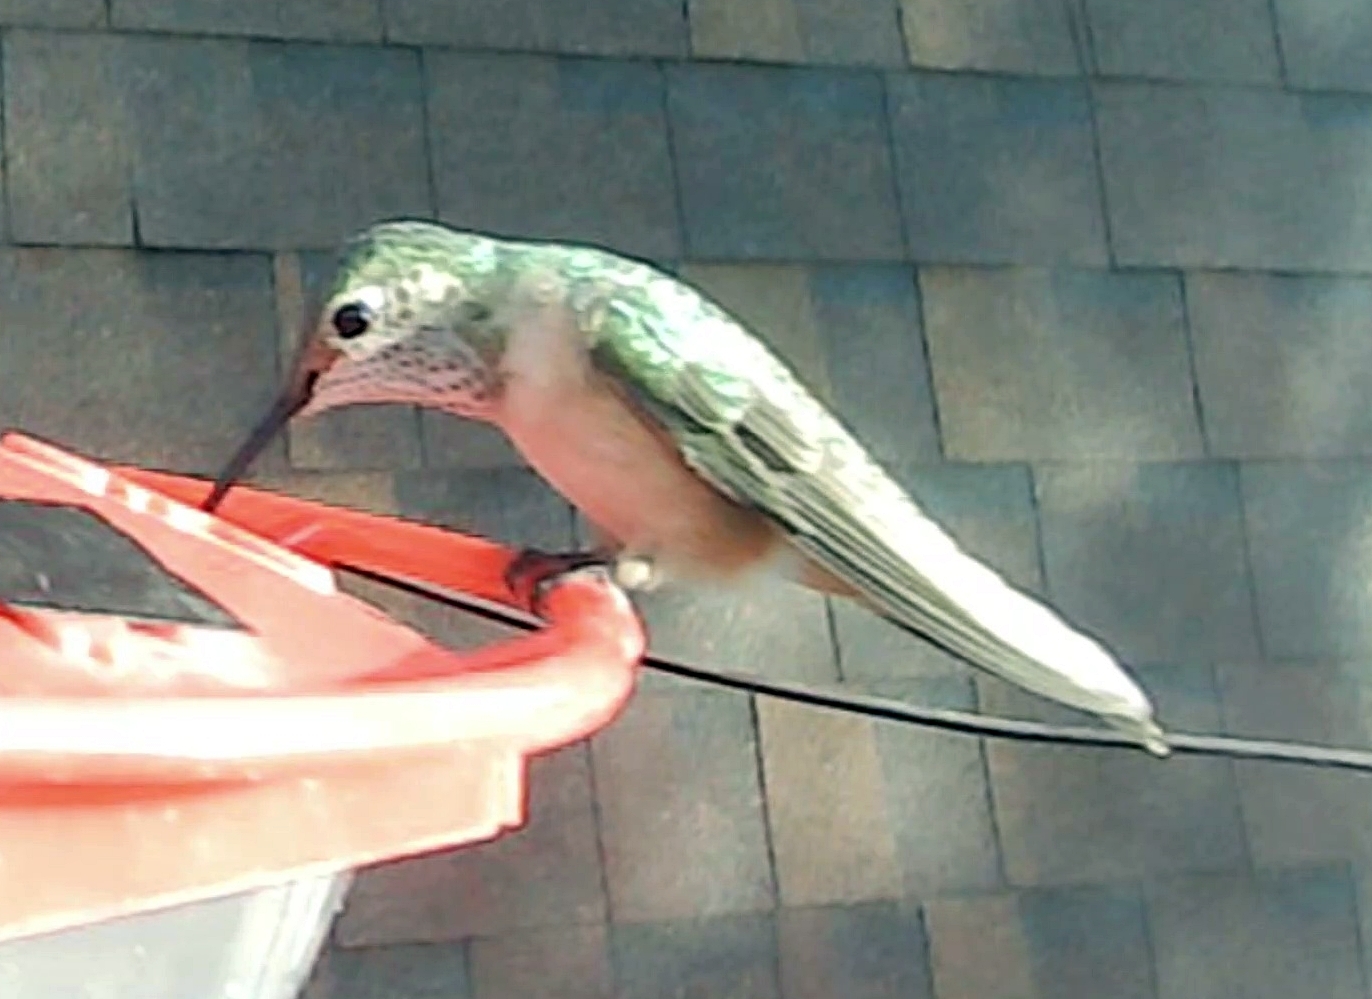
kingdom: Animalia
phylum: Chordata
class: Aves
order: Apodiformes
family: Trochilidae
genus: Selasphorus
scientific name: Selasphorus platycercus
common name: Broad-tailed hummingbird
